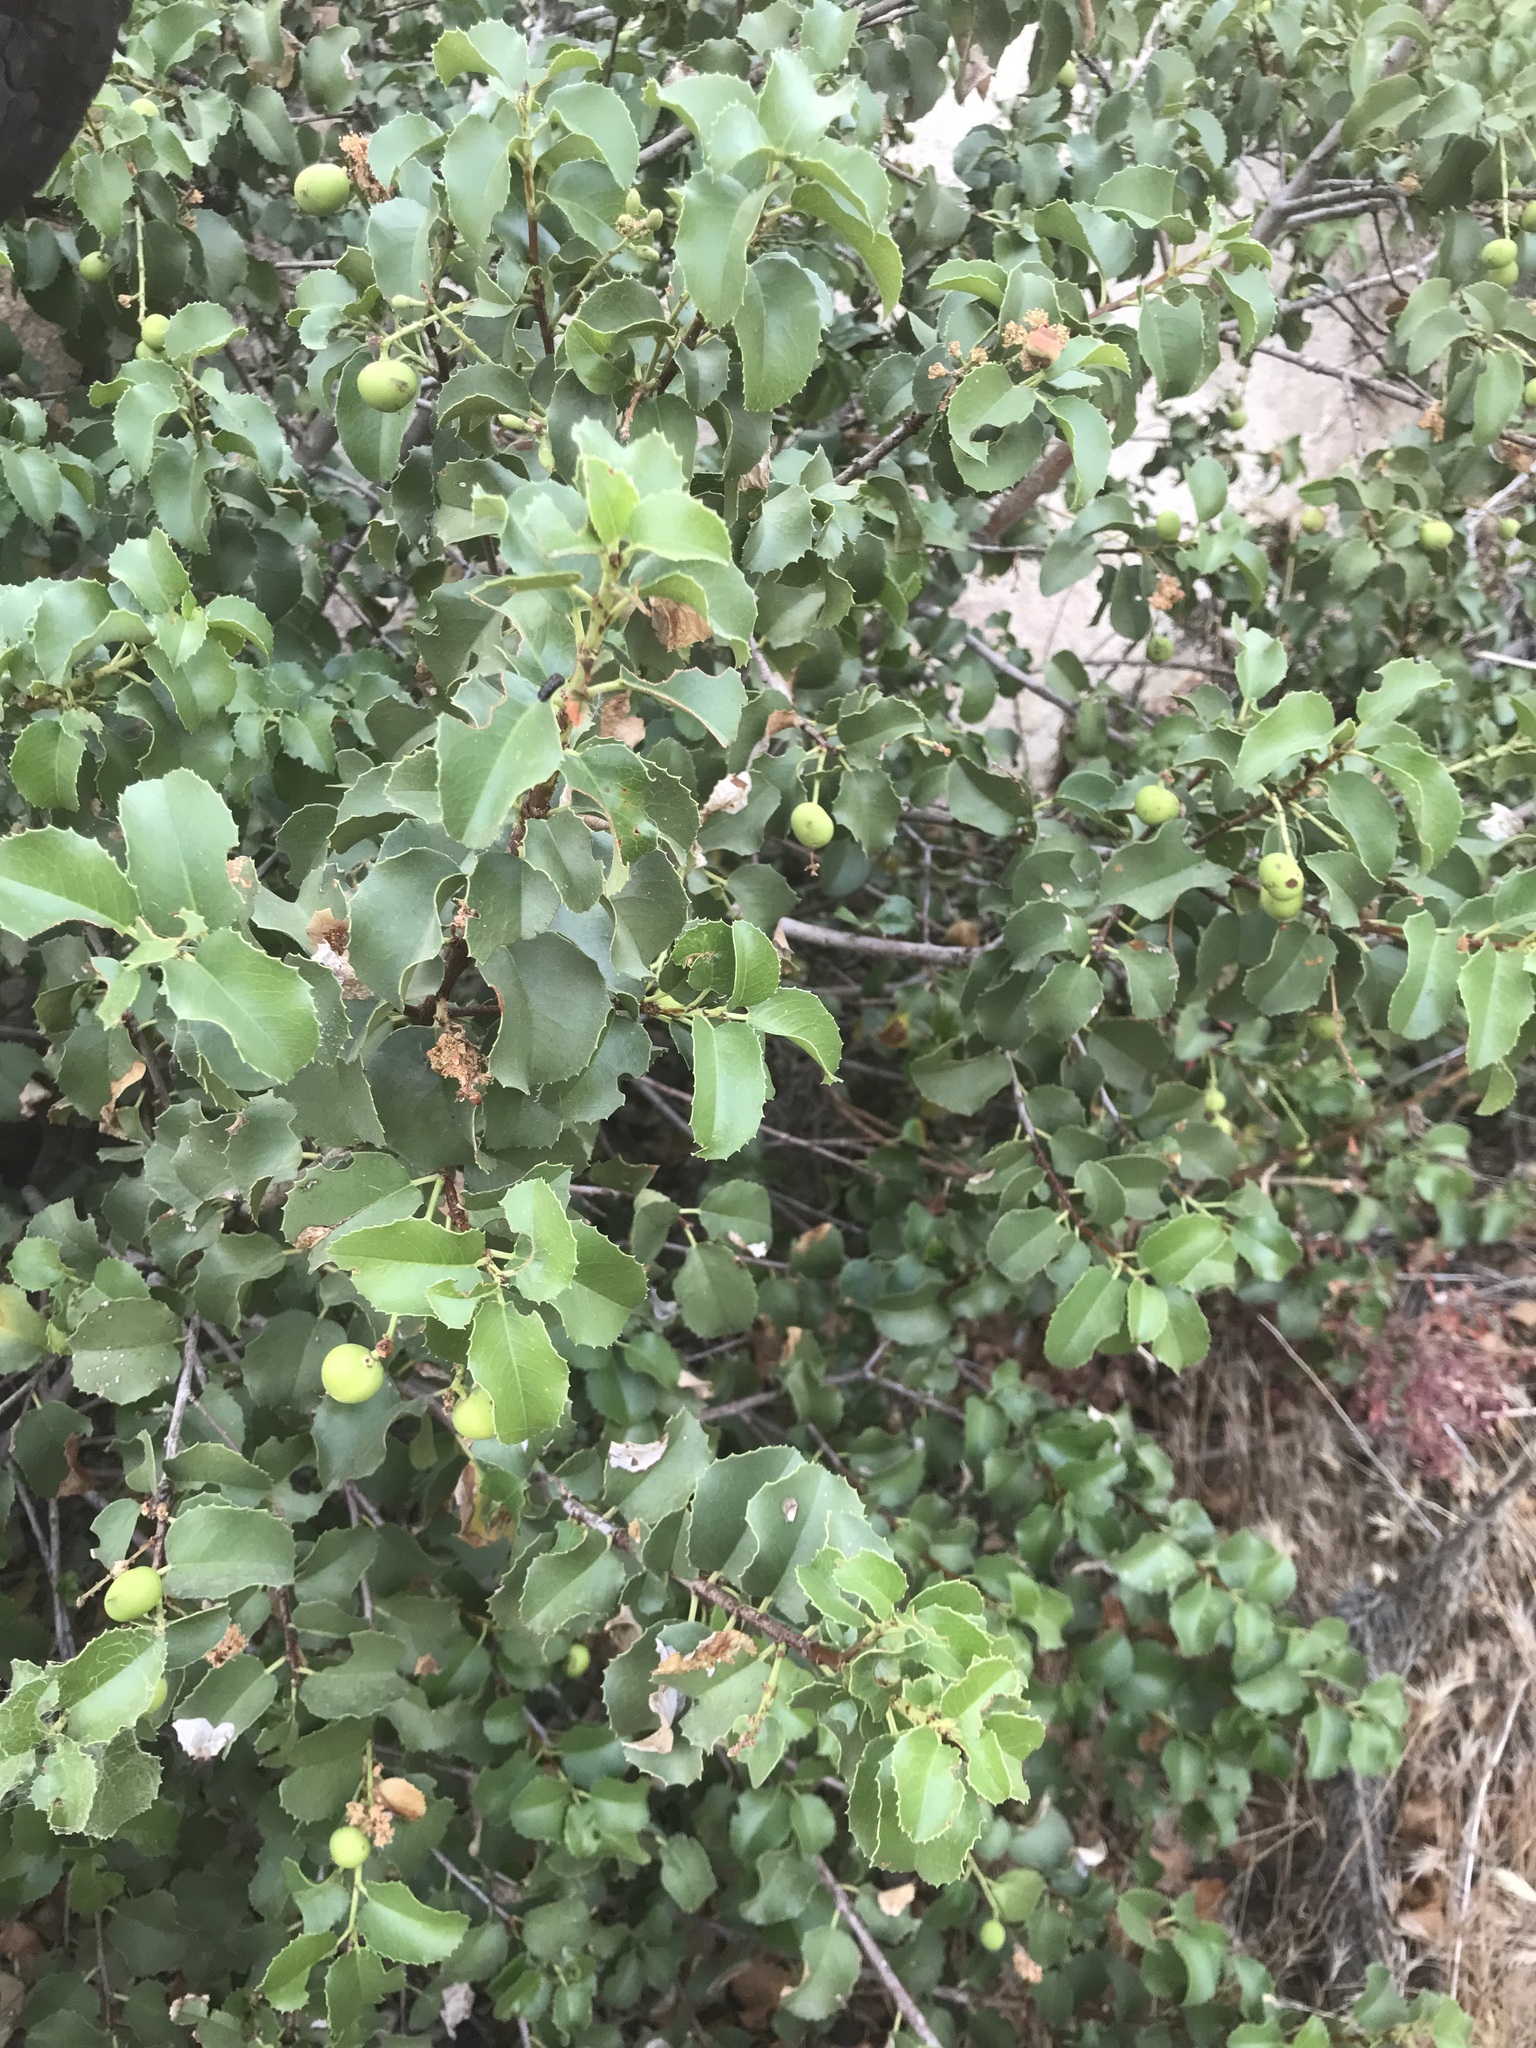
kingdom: Plantae
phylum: Tracheophyta
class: Magnoliopsida
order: Rosales
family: Rosaceae
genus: Prunus
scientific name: Prunus ilicifolia
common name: Hollyleaf cherry
